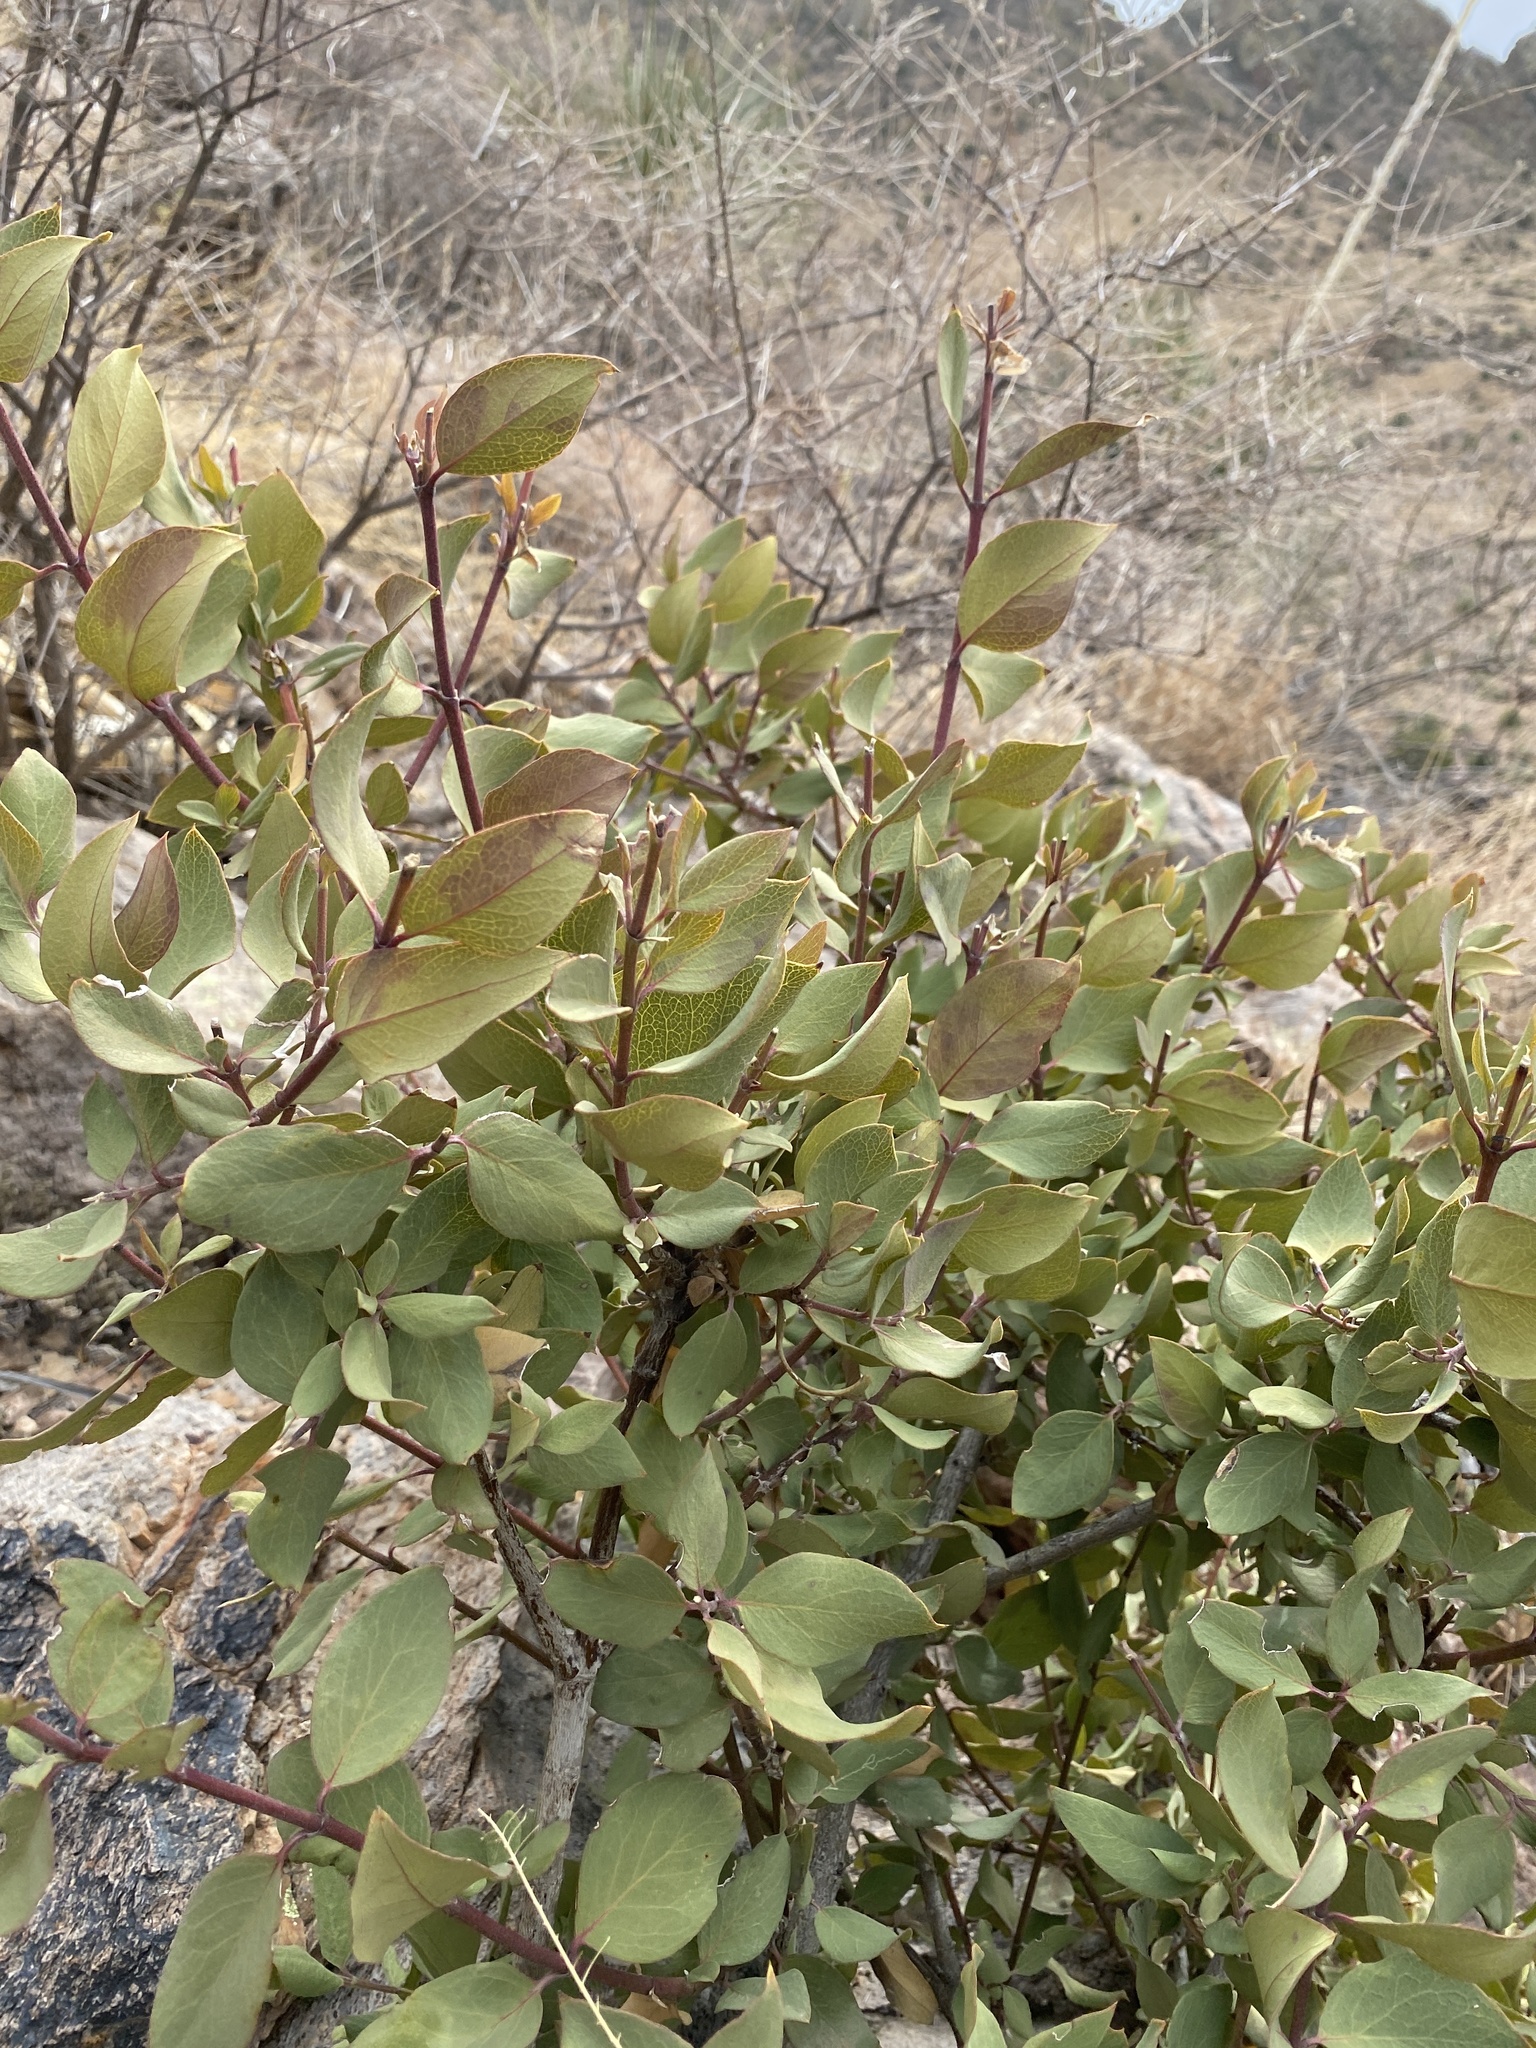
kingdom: Plantae
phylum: Tracheophyta
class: Magnoliopsida
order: Garryales
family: Garryaceae
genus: Garrya
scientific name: Garrya wrightii
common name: Wright's silktassel
